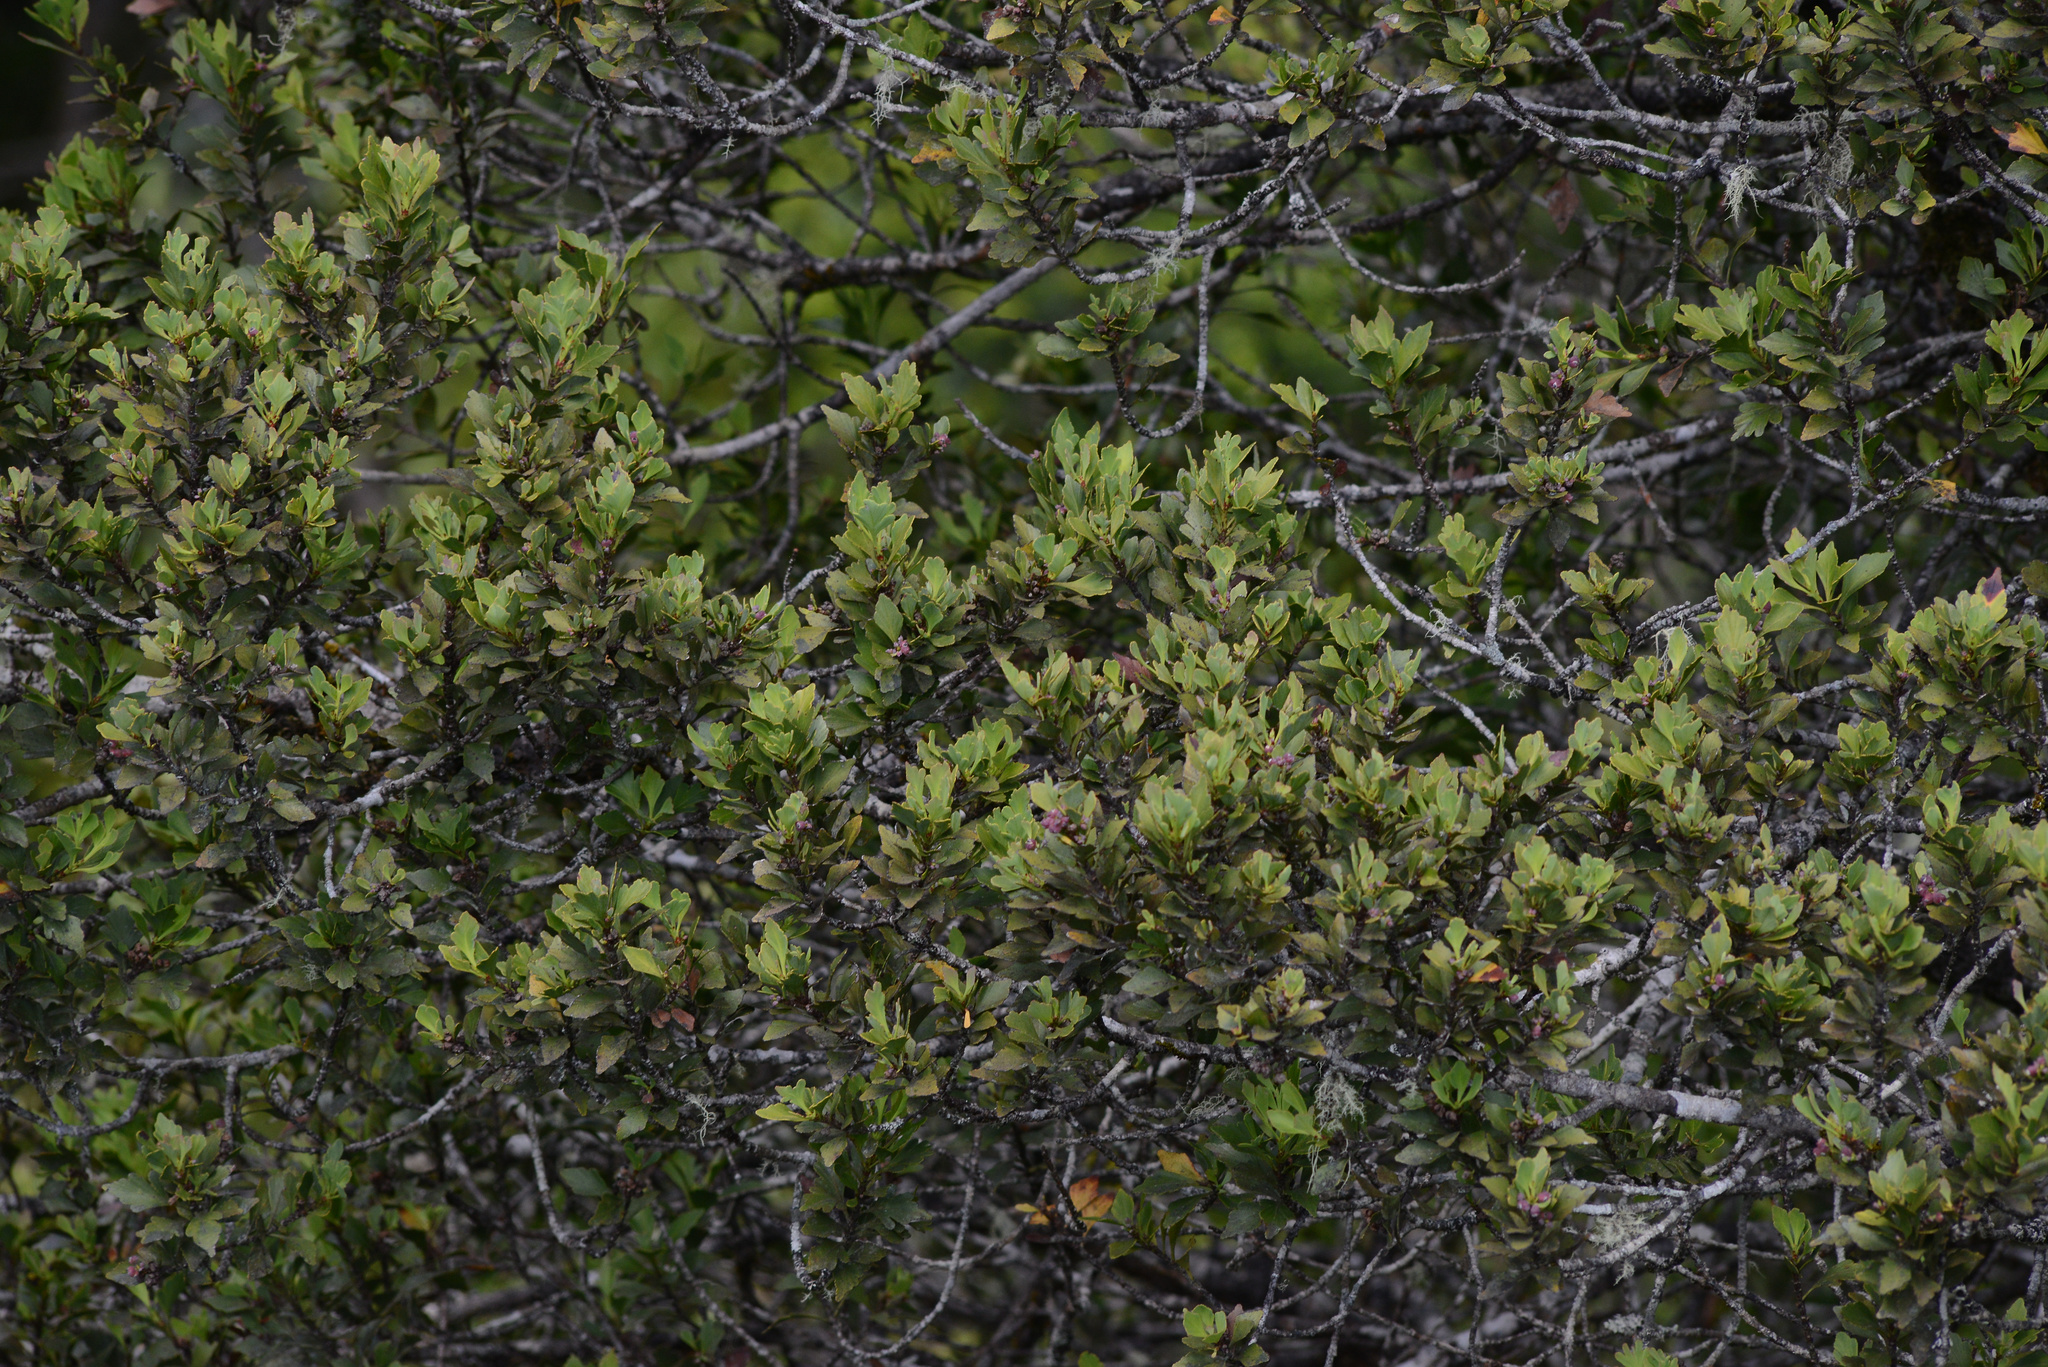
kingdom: Plantae
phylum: Tracheophyta
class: Pinopsida
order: Pinales
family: Phyllocladaceae
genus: Phyllocladus
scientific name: Phyllocladus aspleniifolius
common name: Celery-top pine
